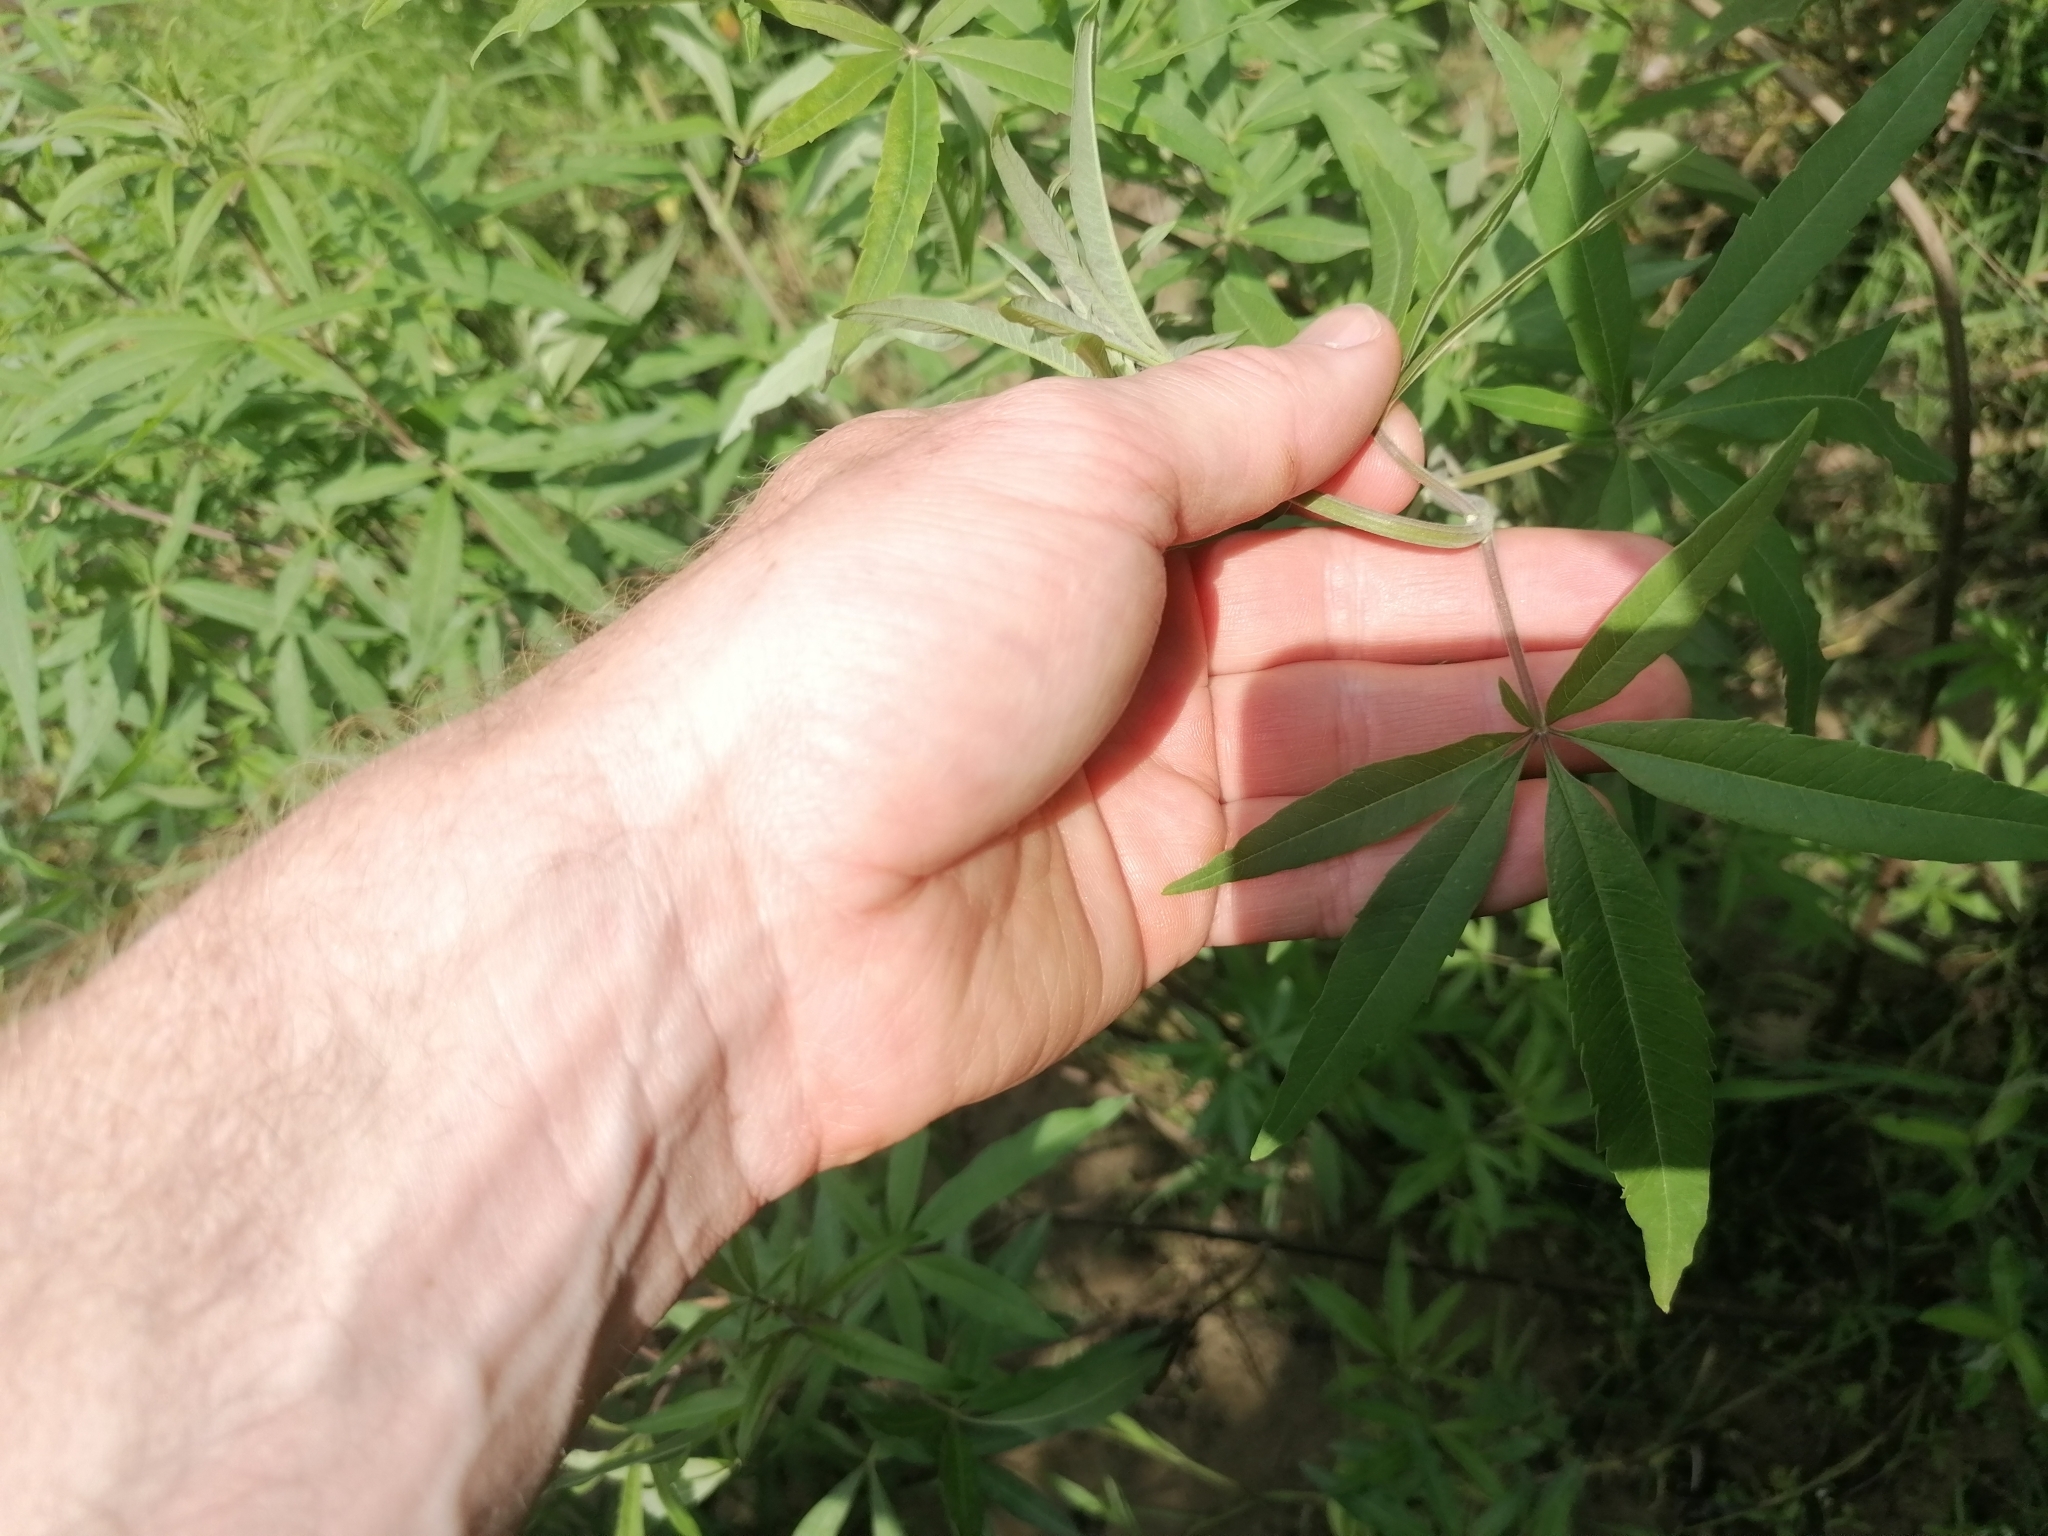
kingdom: Plantae
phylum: Tracheophyta
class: Magnoliopsida
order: Lamiales
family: Lamiaceae
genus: Vitex
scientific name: Vitex agnus-castus
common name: Chasteberry
